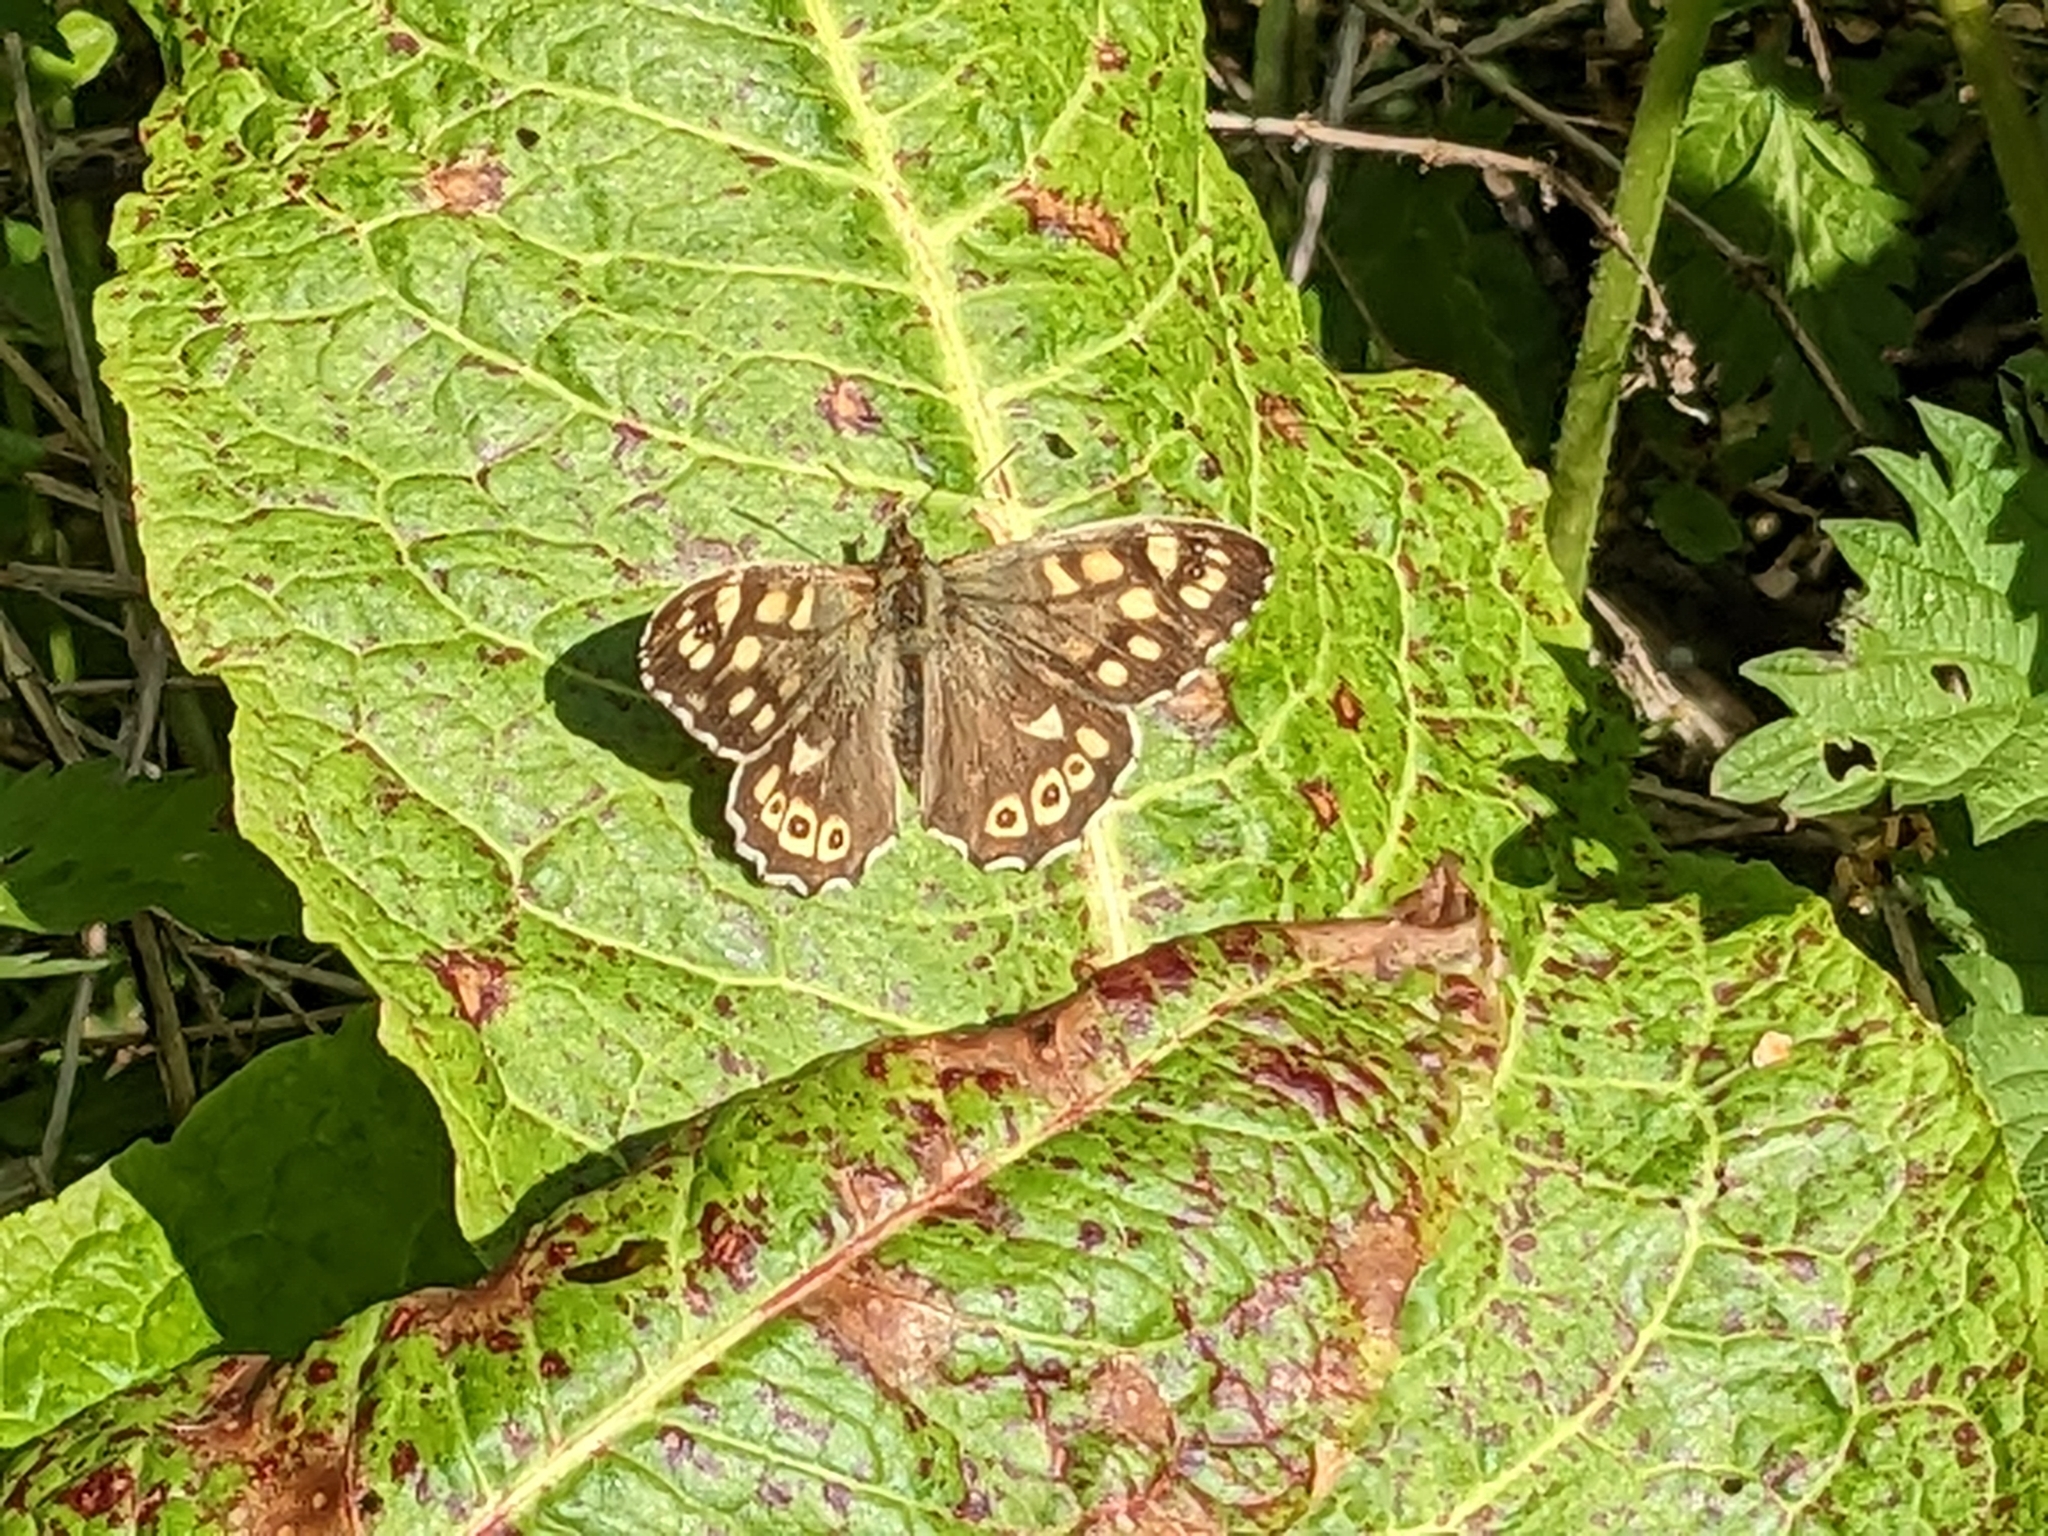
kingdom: Animalia
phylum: Arthropoda
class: Insecta
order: Lepidoptera
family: Nymphalidae
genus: Pararge
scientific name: Pararge aegeria
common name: Speckled wood
